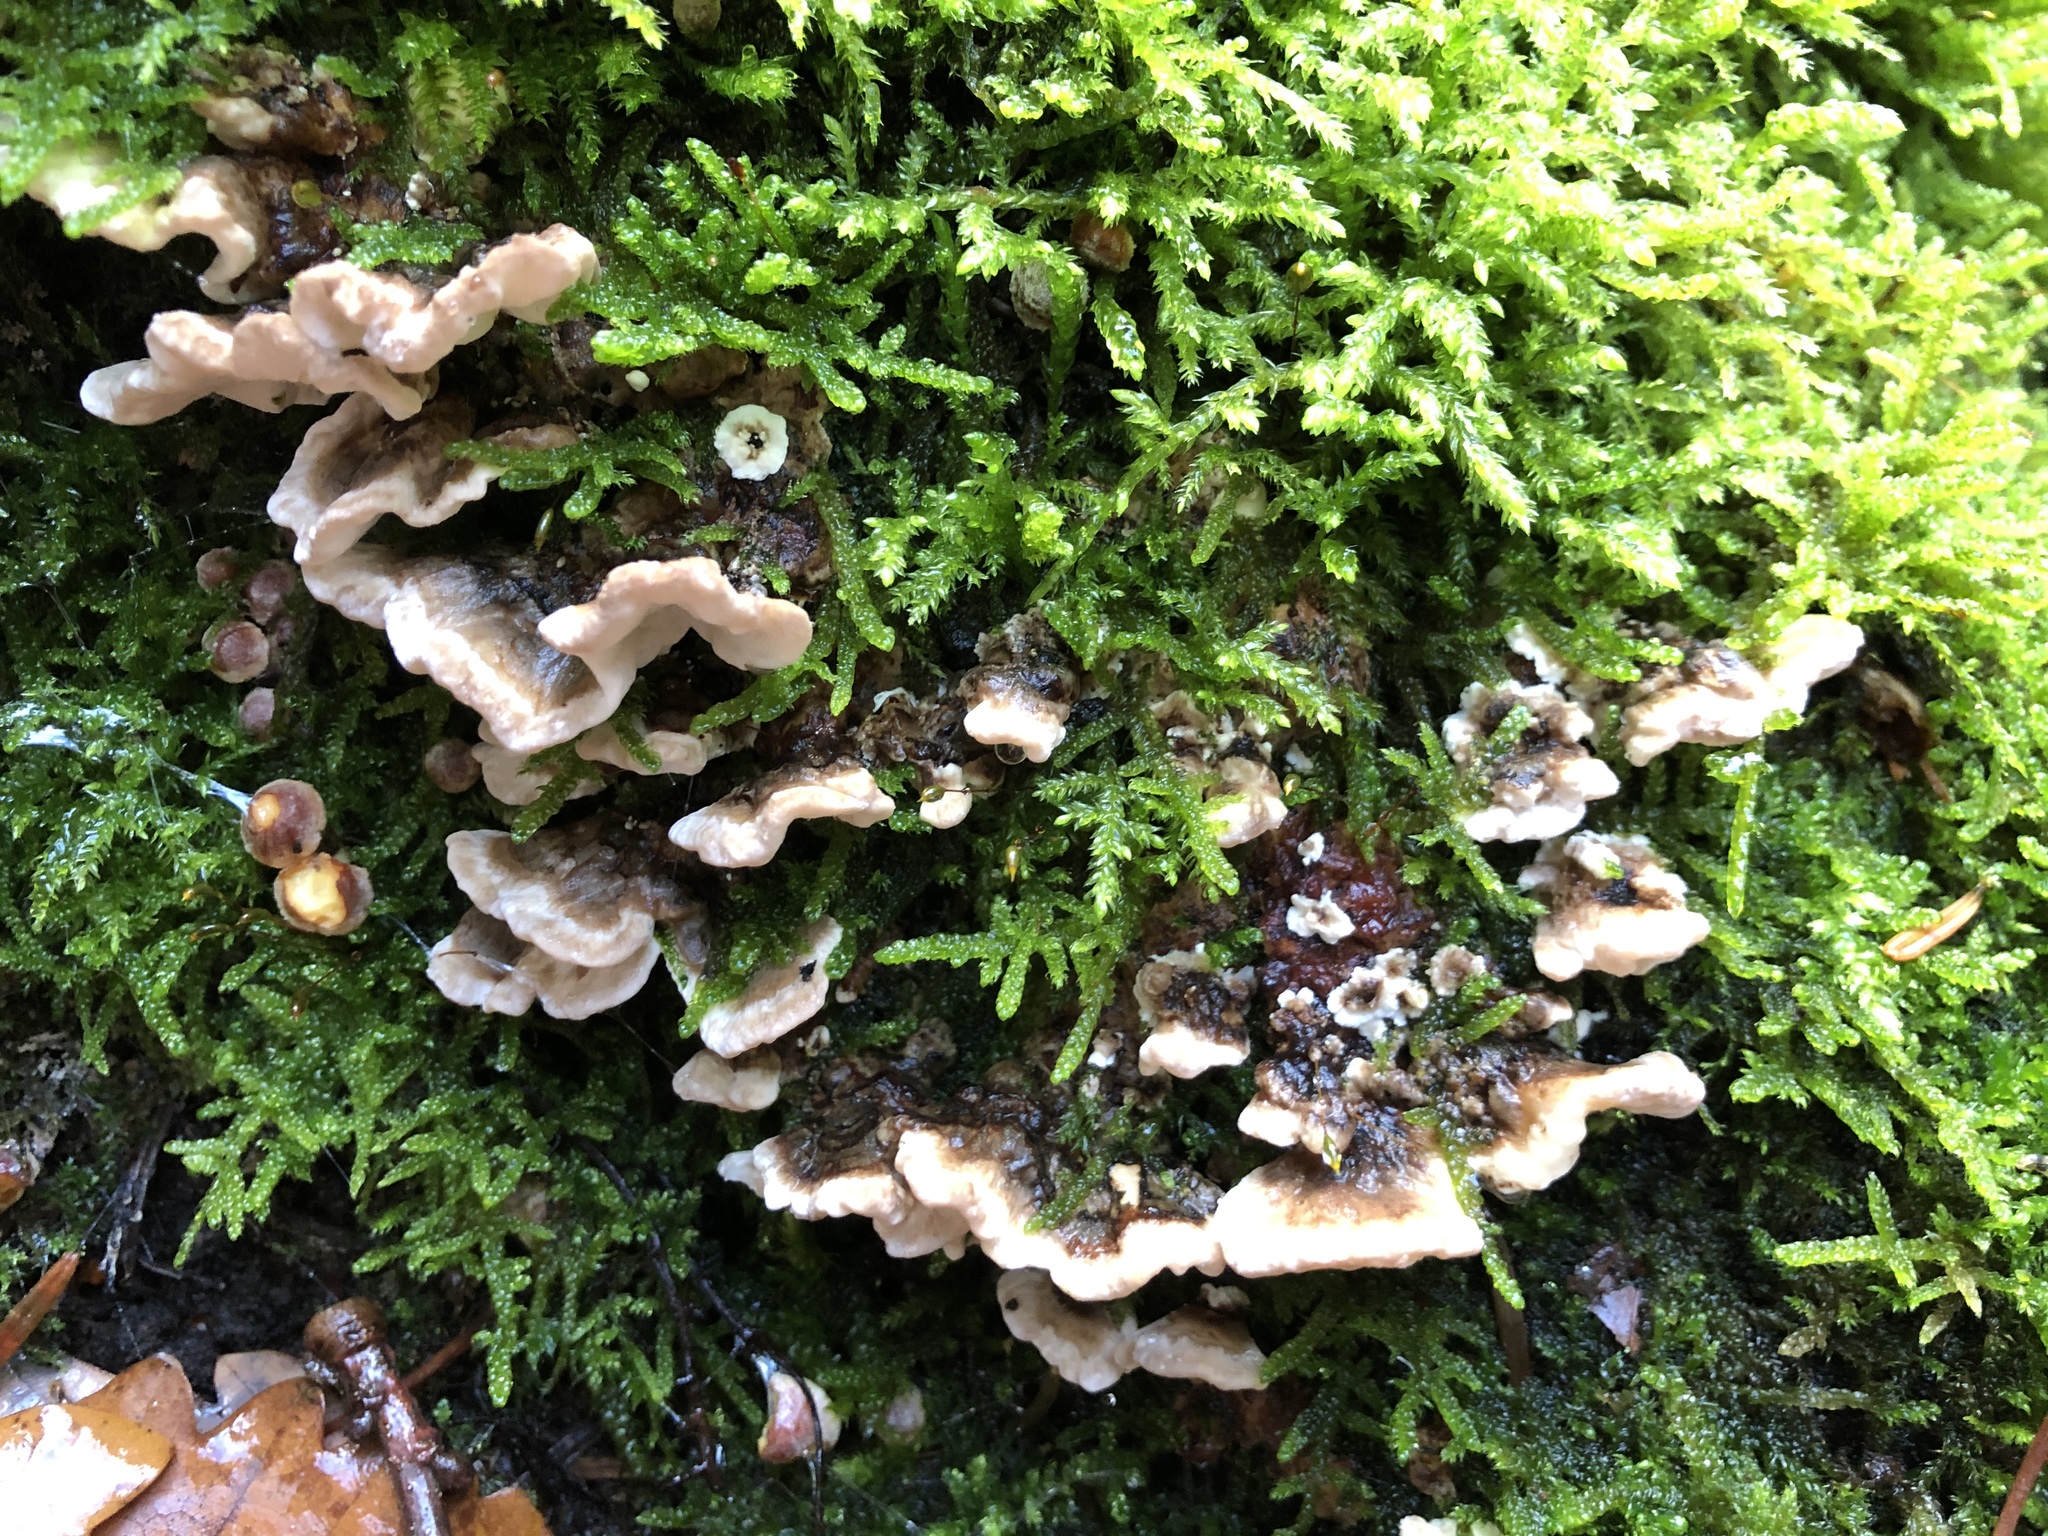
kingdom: Fungi
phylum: Basidiomycota
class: Agaricomycetes
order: Polyporales
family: Polyporaceae
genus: Trametes
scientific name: Trametes versicolor
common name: Turkeytail
